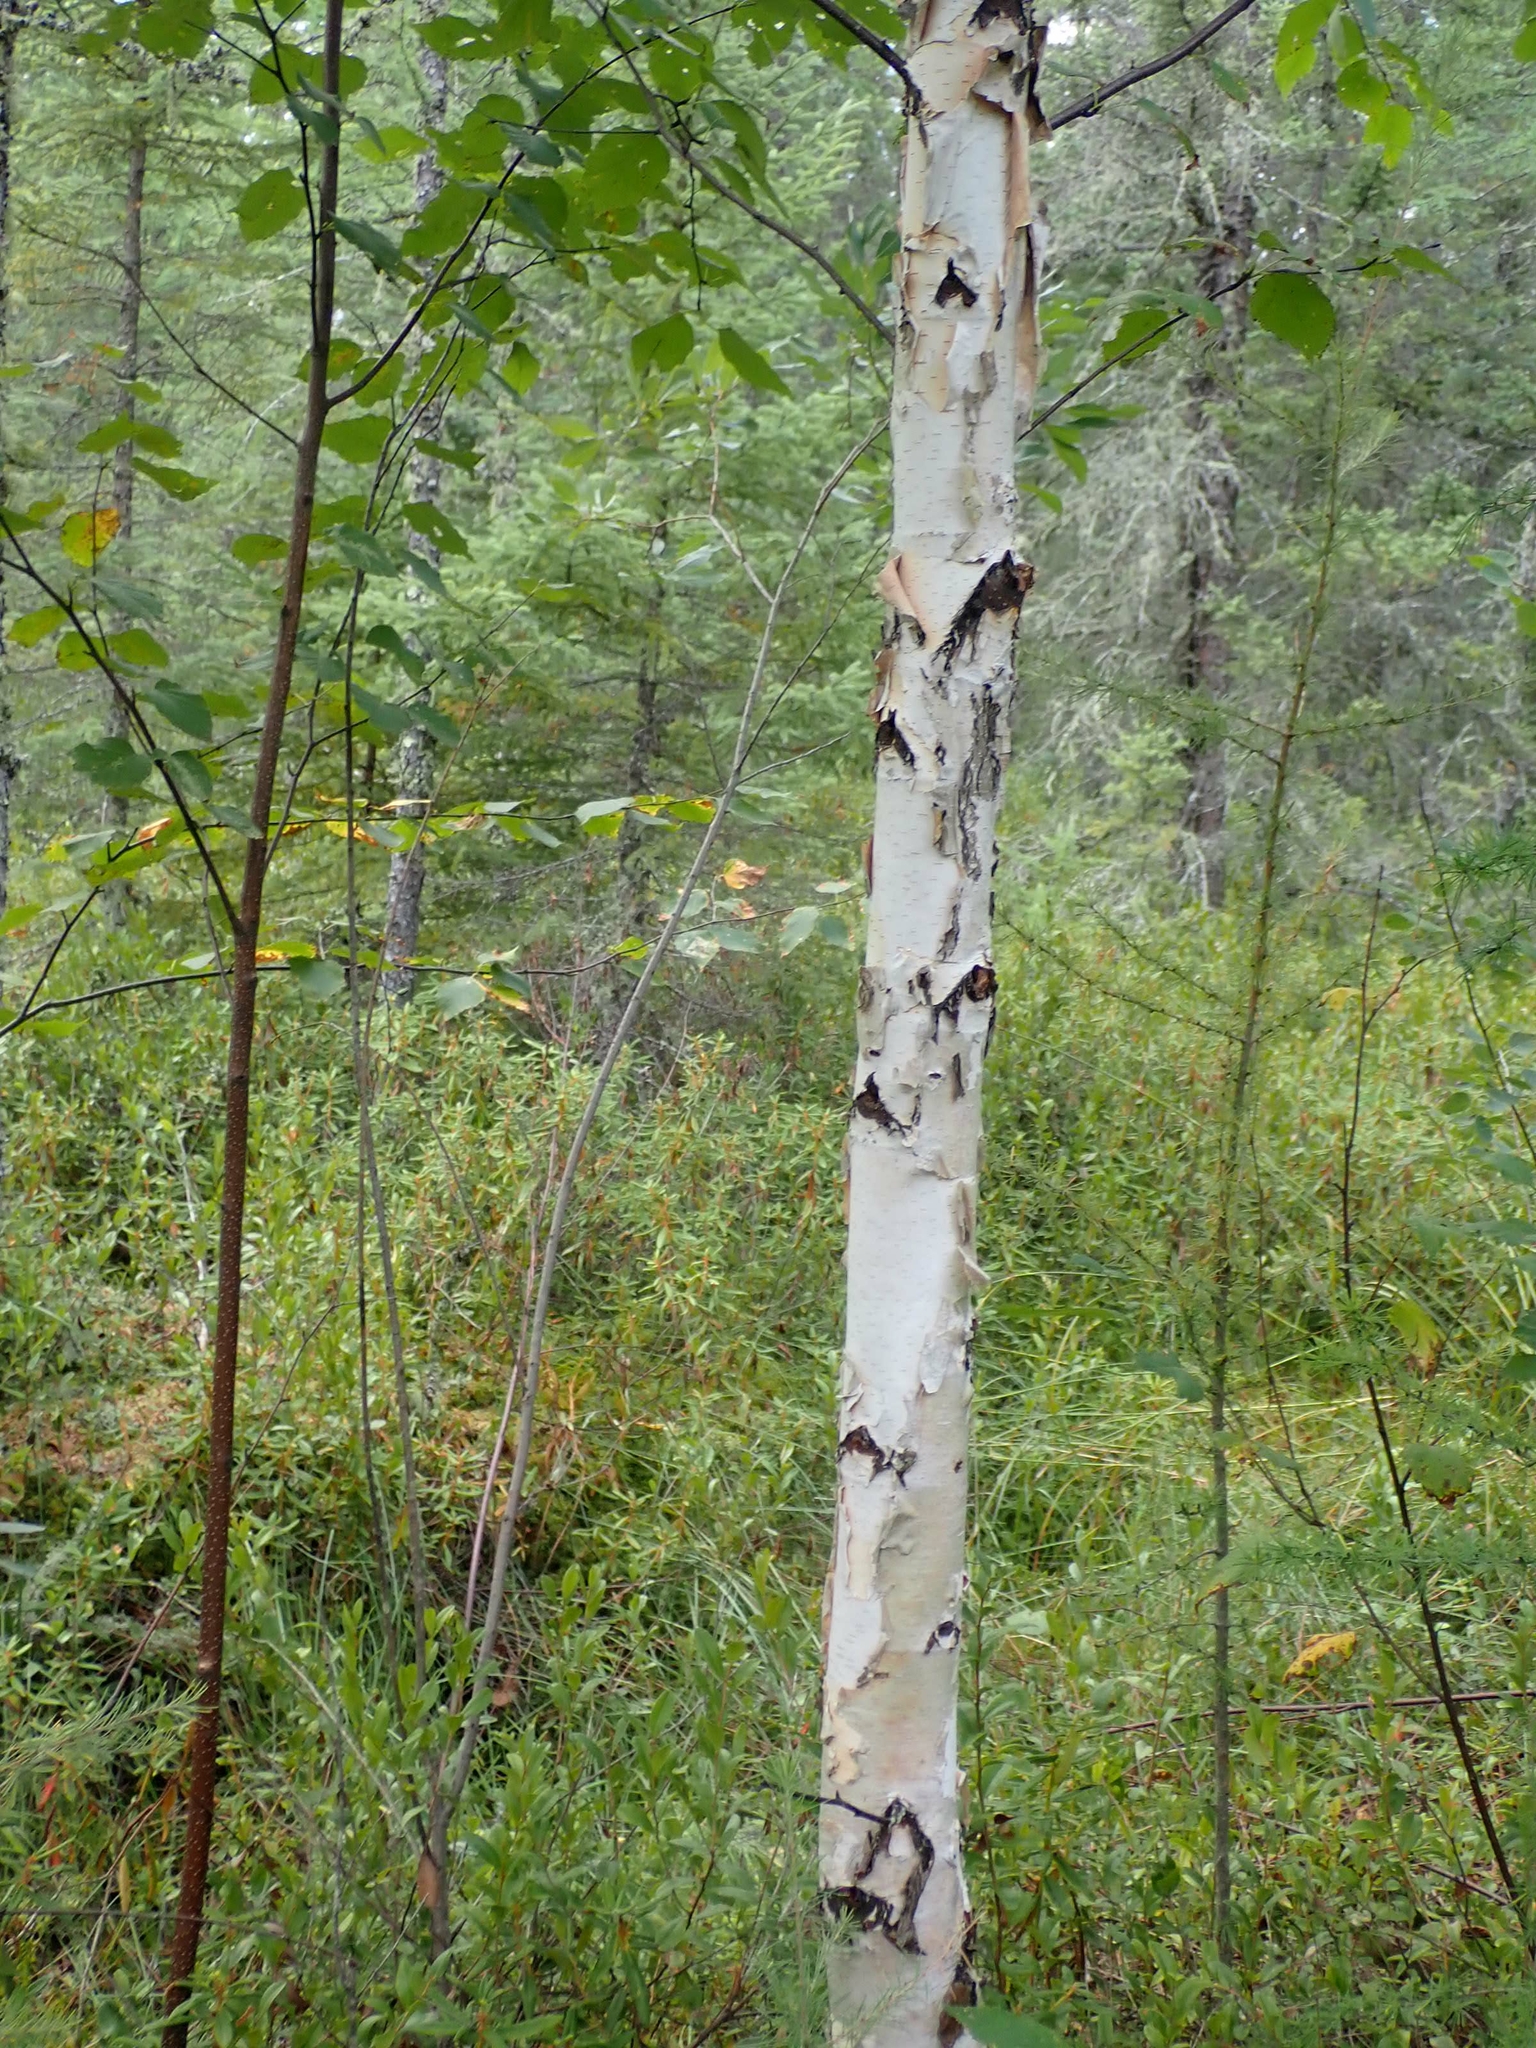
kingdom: Plantae
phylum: Tracheophyta
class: Magnoliopsida
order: Fagales
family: Betulaceae
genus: Betula
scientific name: Betula papyrifera
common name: Paper birch
